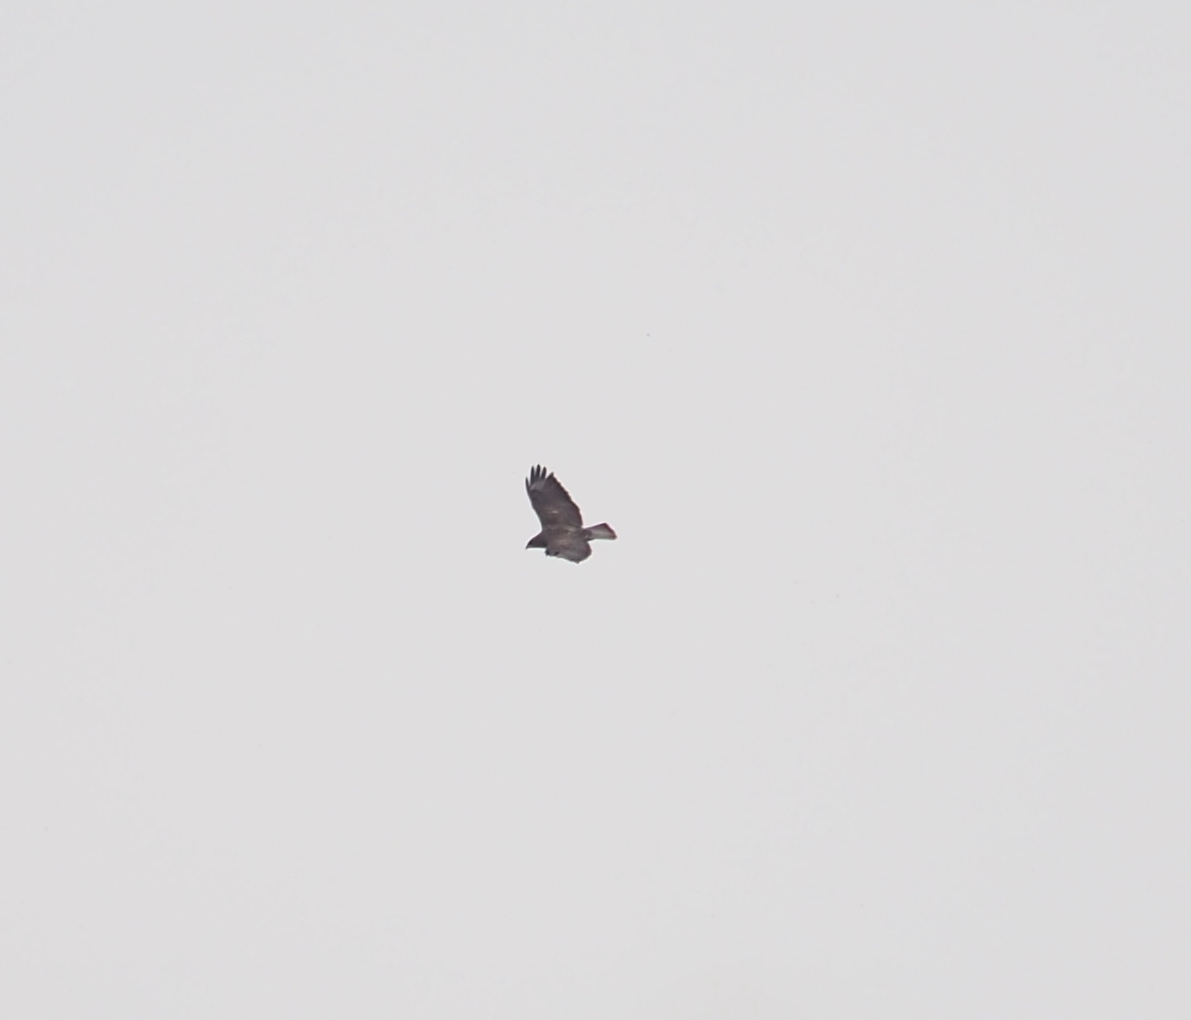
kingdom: Animalia
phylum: Chordata
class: Aves
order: Accipitriformes
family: Accipitridae
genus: Buteo
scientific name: Buteo buteo
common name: Common buzzard
